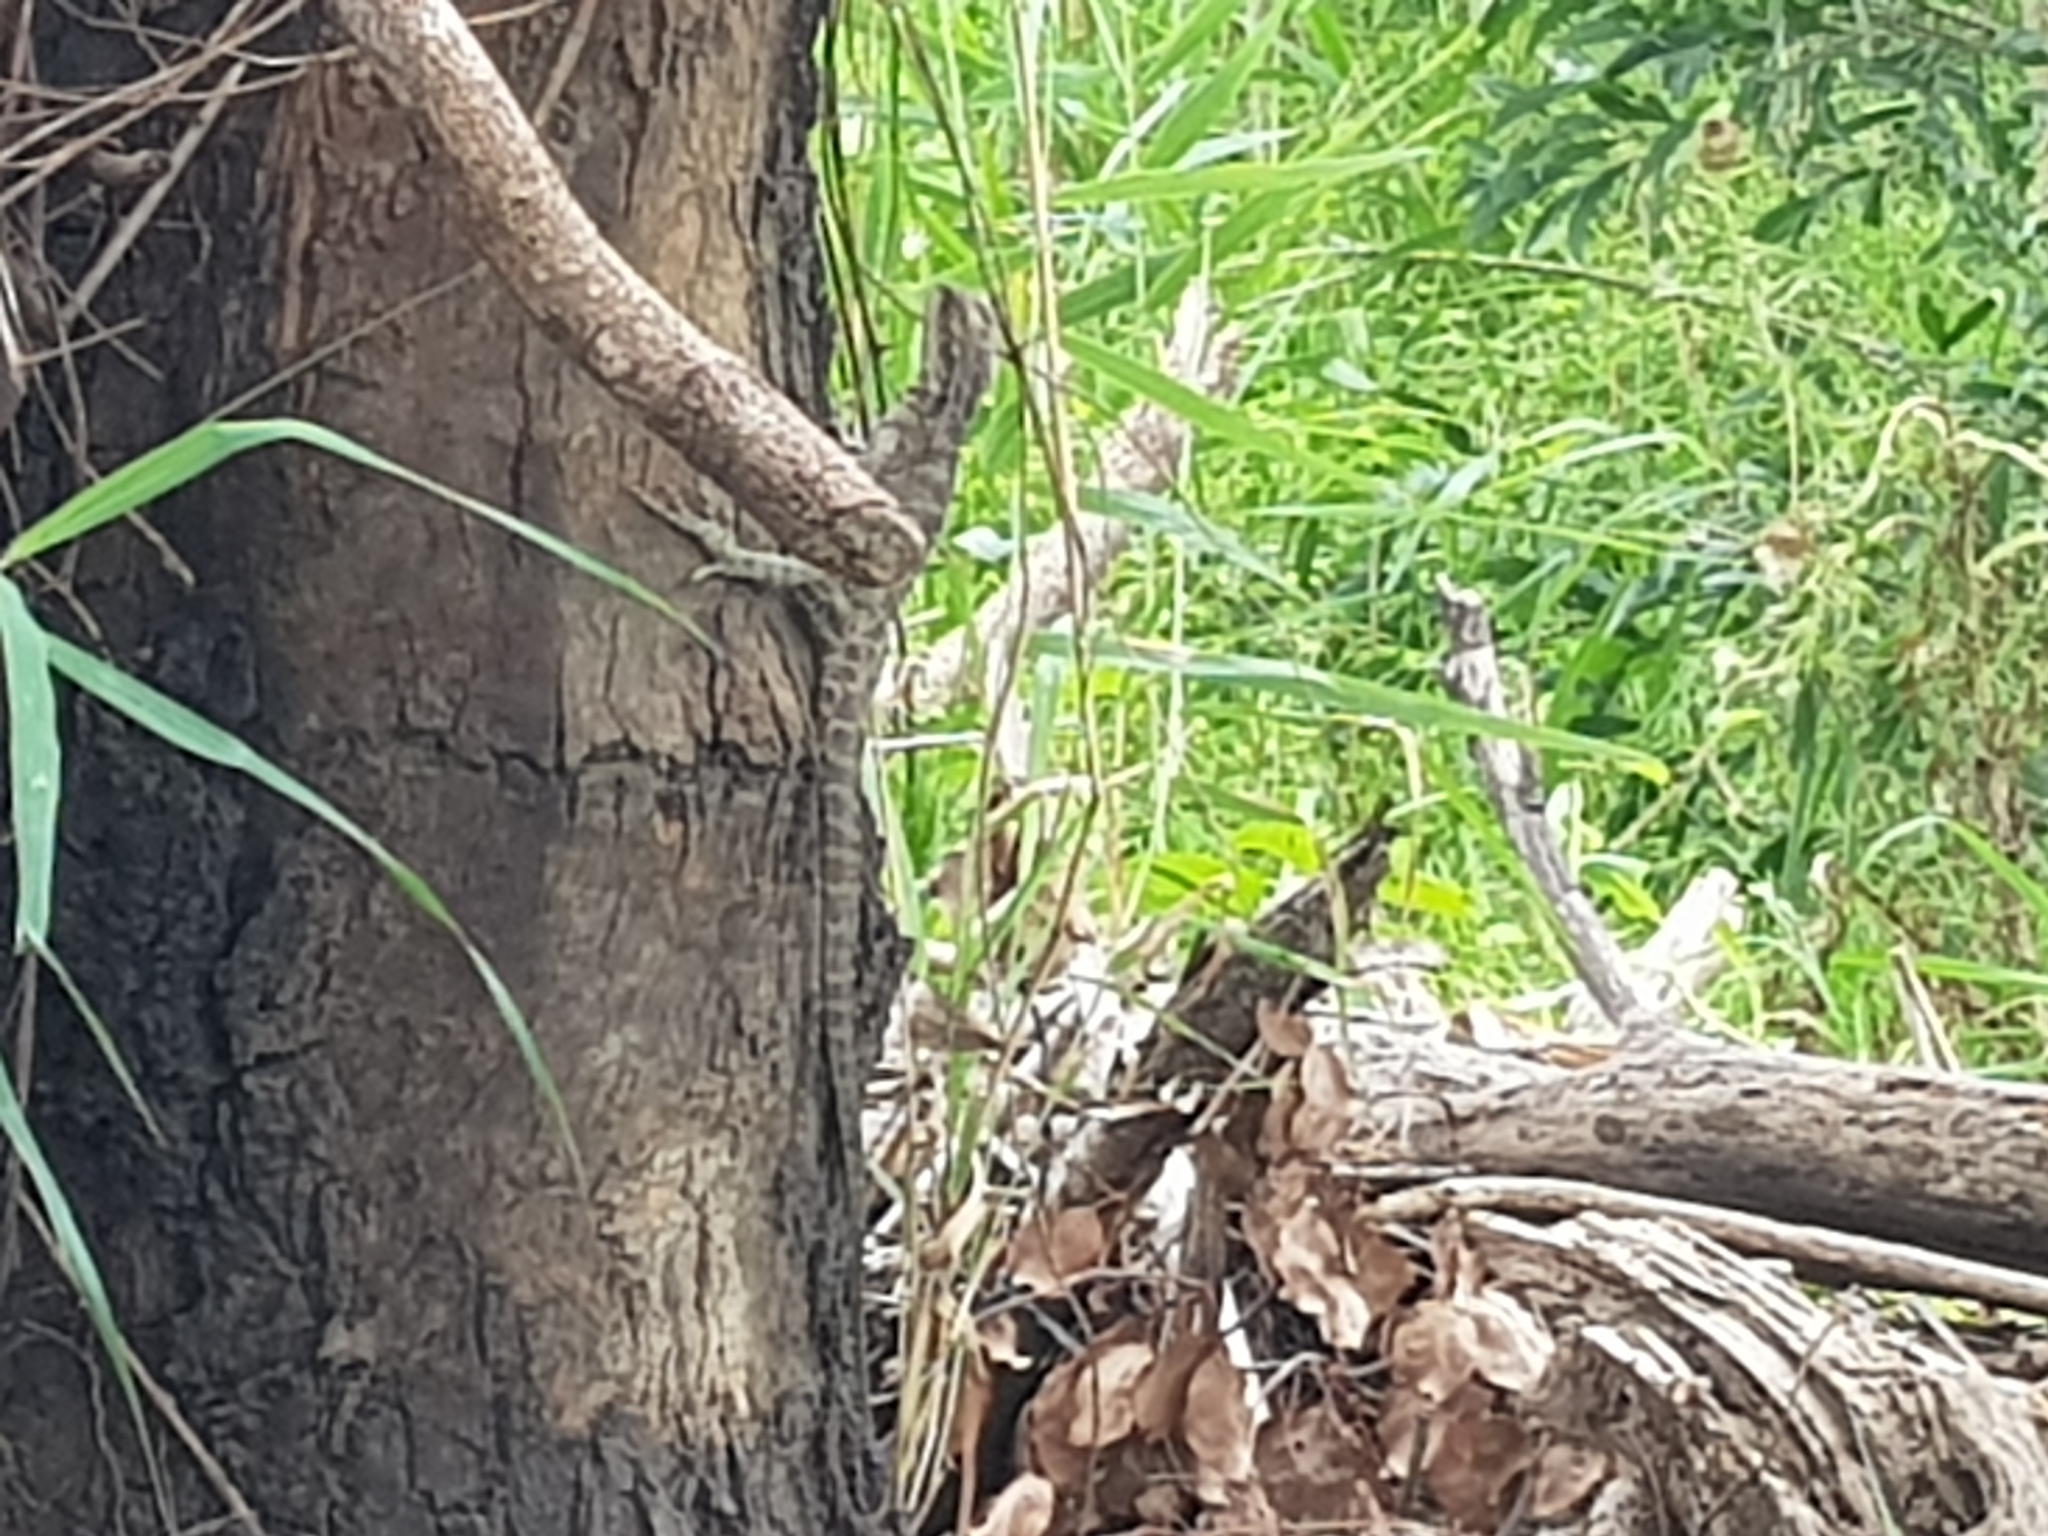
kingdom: Animalia
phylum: Chordata
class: Squamata
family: Agamidae
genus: Intellagama
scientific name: Intellagama lesueurii
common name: Eastern water dragon
